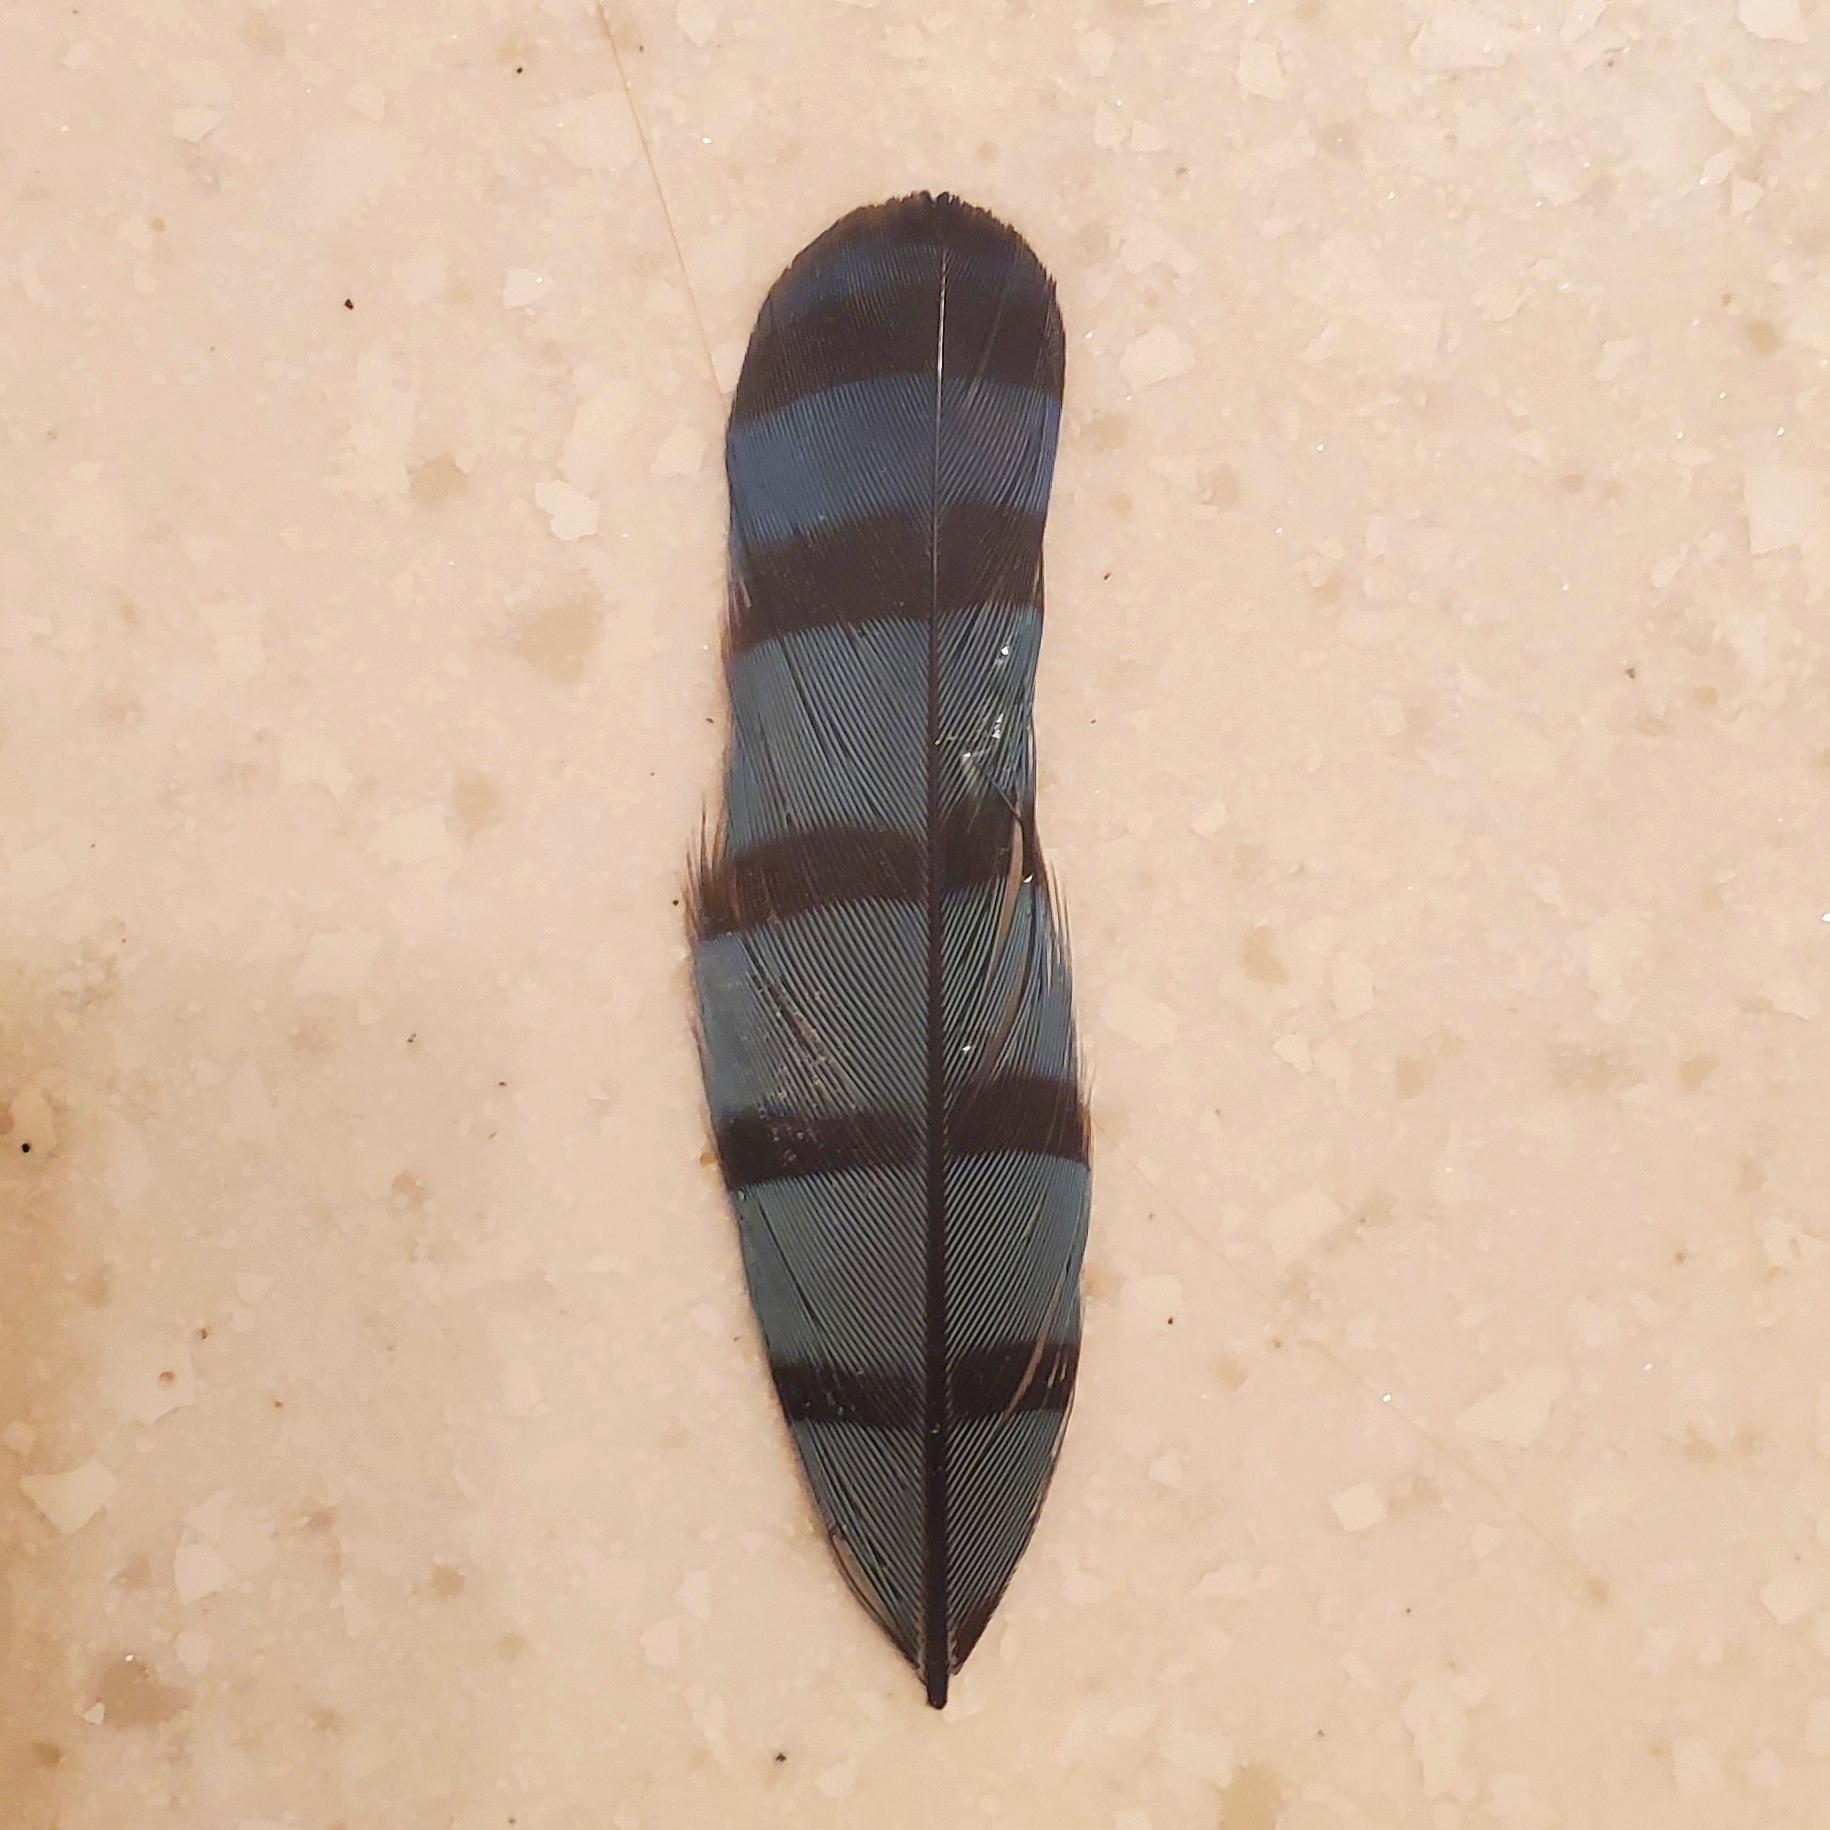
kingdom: Animalia
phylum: Chordata
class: Aves
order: Passeriformes
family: Corvidae
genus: Cyanocitta
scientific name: Cyanocitta cristata
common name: Blue jay
